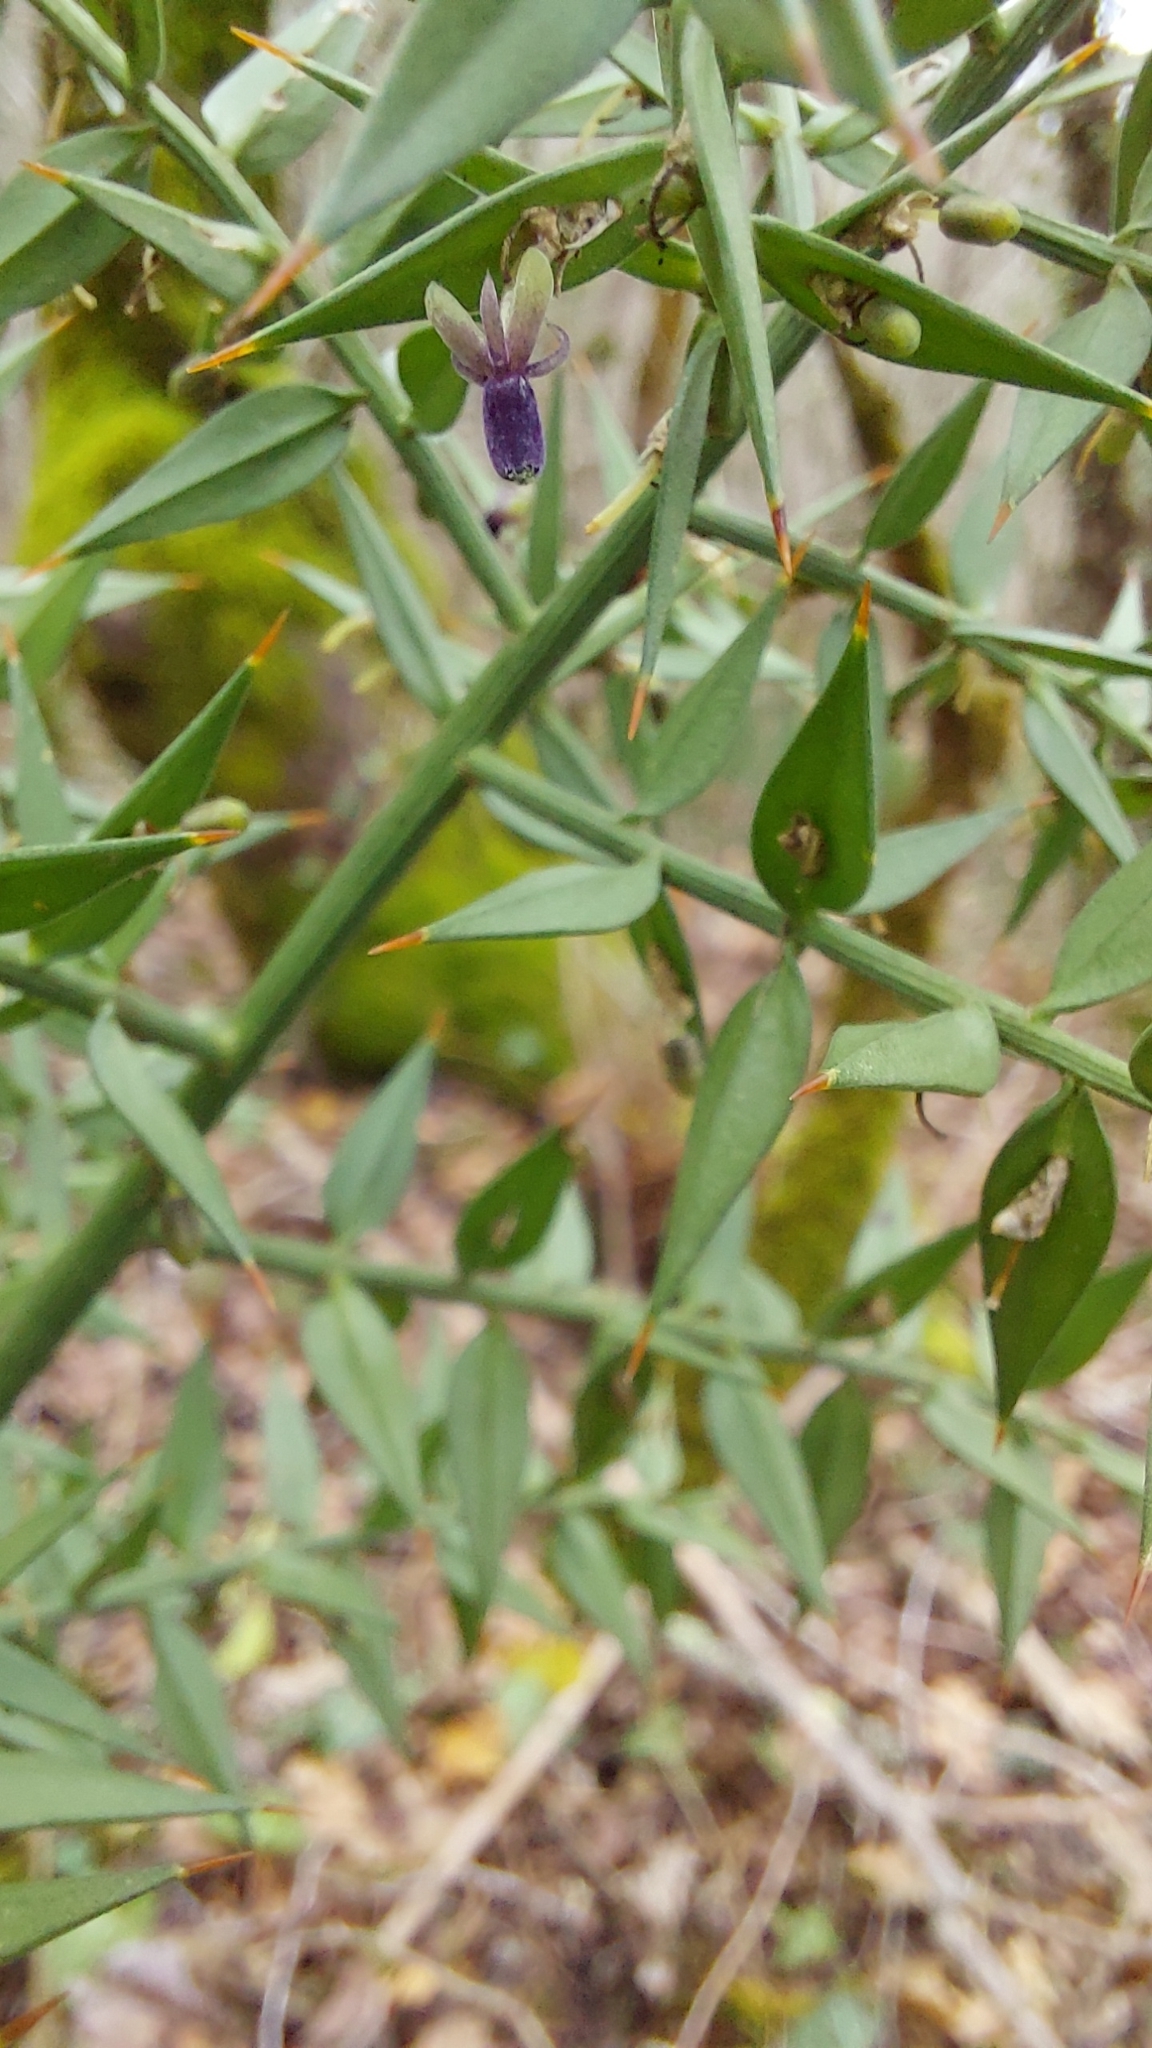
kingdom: Plantae
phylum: Tracheophyta
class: Liliopsida
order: Asparagales
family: Asparagaceae
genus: Ruscus
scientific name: Ruscus aculeatus
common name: Butcher's-broom
